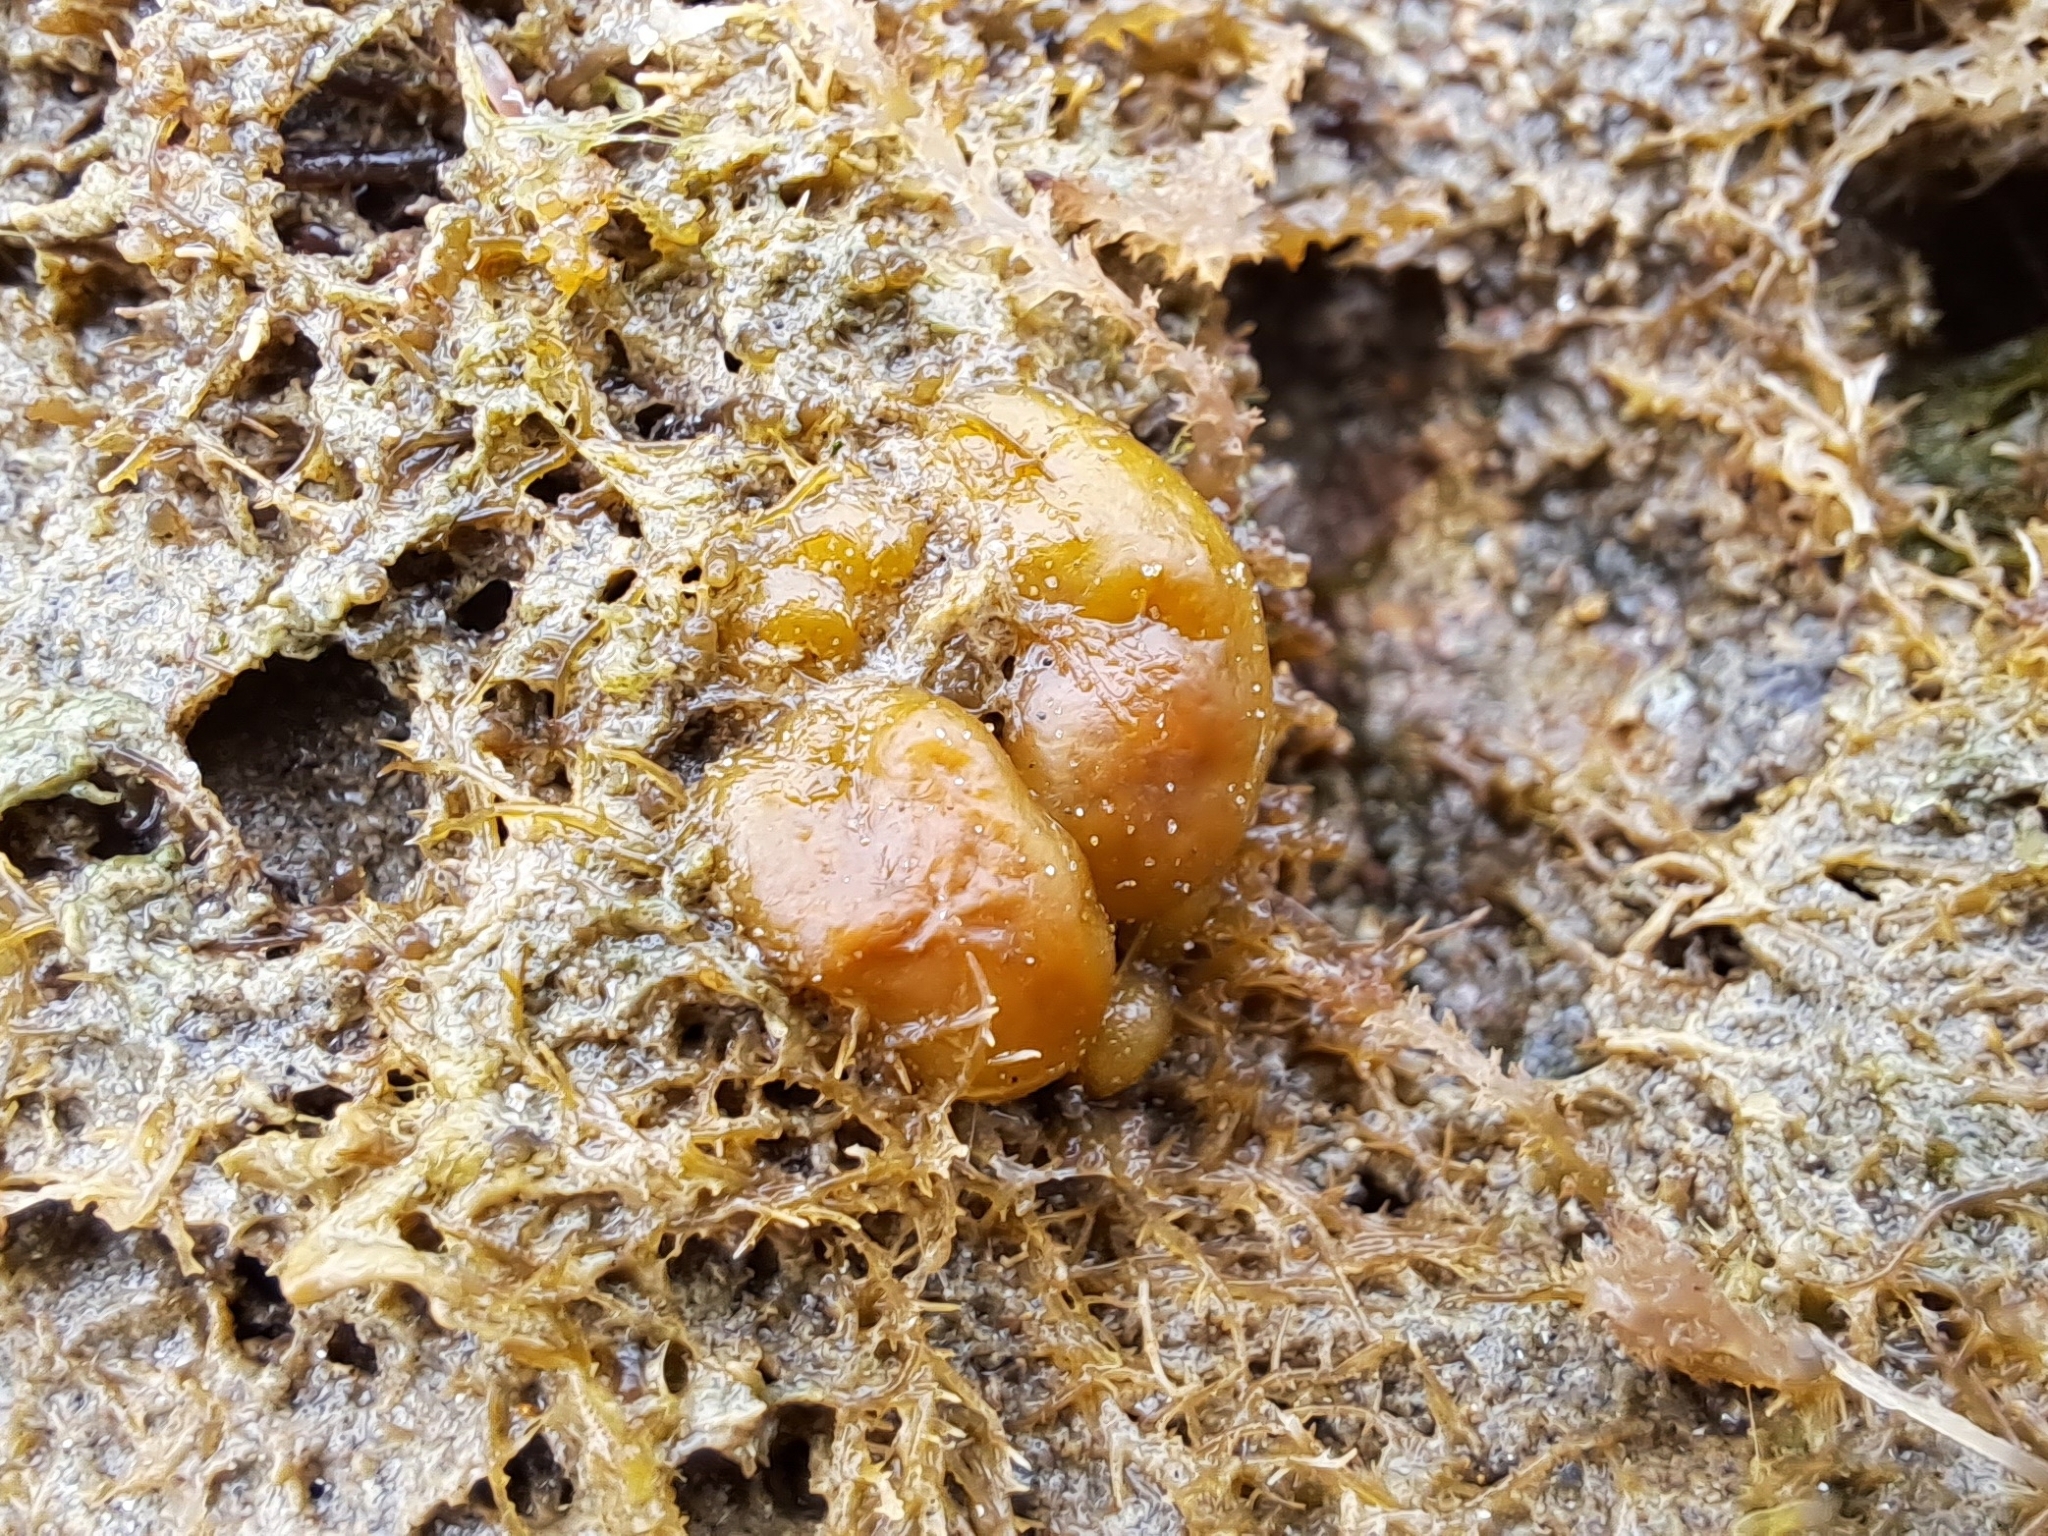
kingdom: Chromista
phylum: Ochrophyta
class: Phaeophyceae
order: Scytosiphonales
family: Scytosiphonaceae
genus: Colpomenia
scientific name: Colpomenia sinuosa
